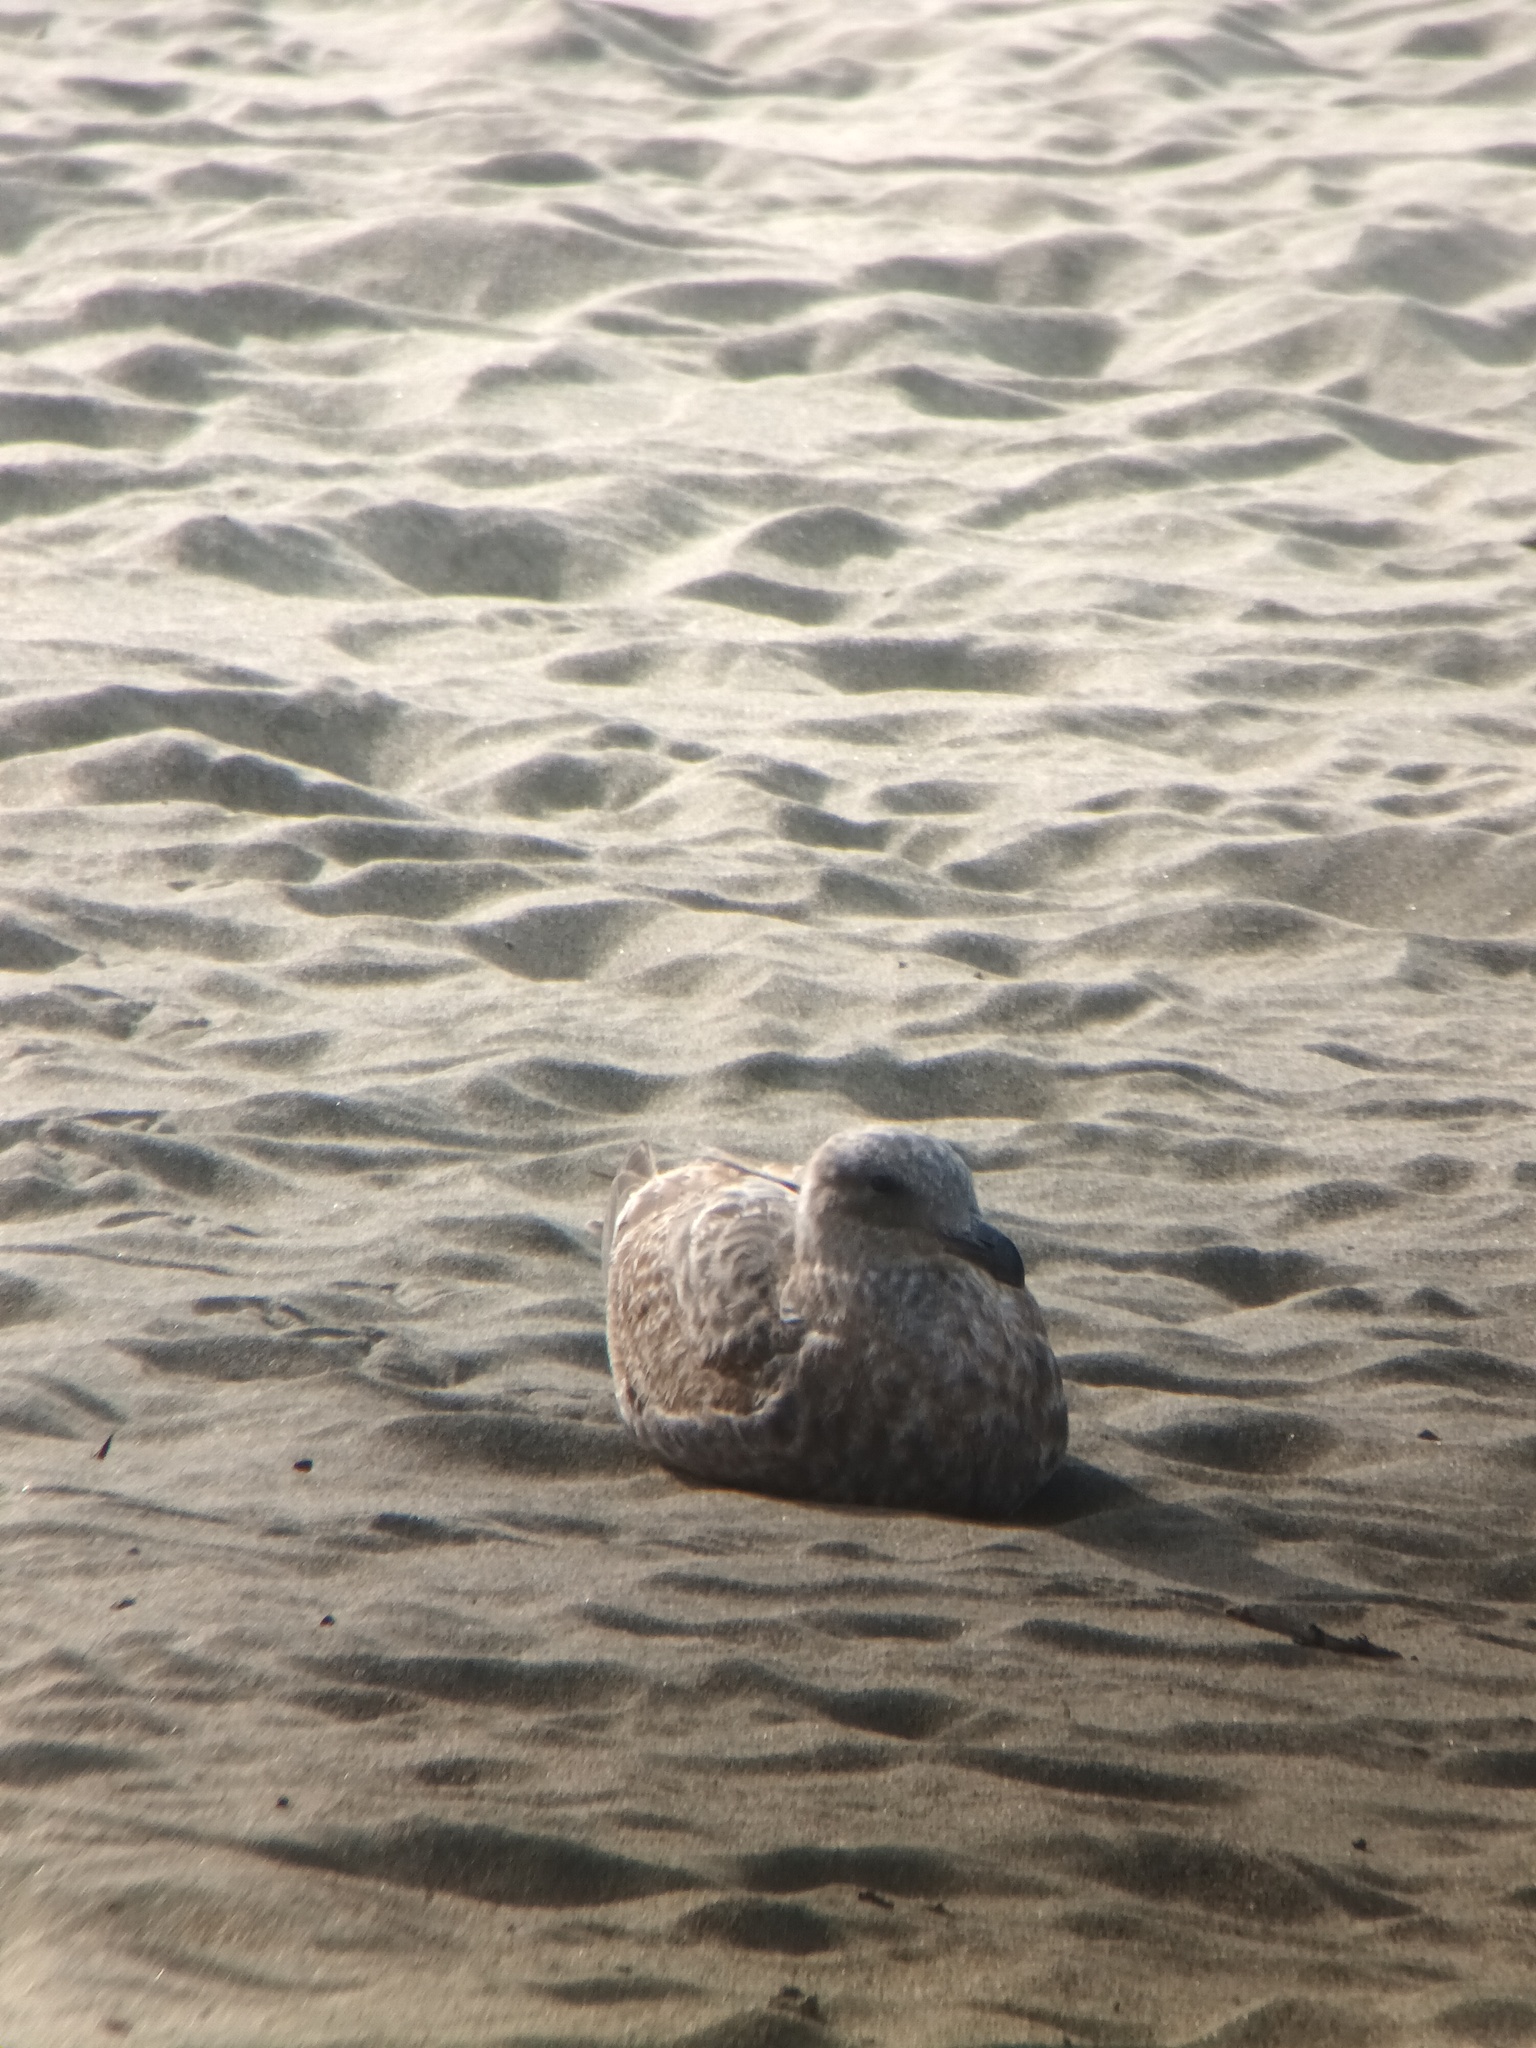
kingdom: Animalia
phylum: Chordata
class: Aves
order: Charadriiformes
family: Laridae
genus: Larus
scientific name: Larus occidentalis
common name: Western gull
